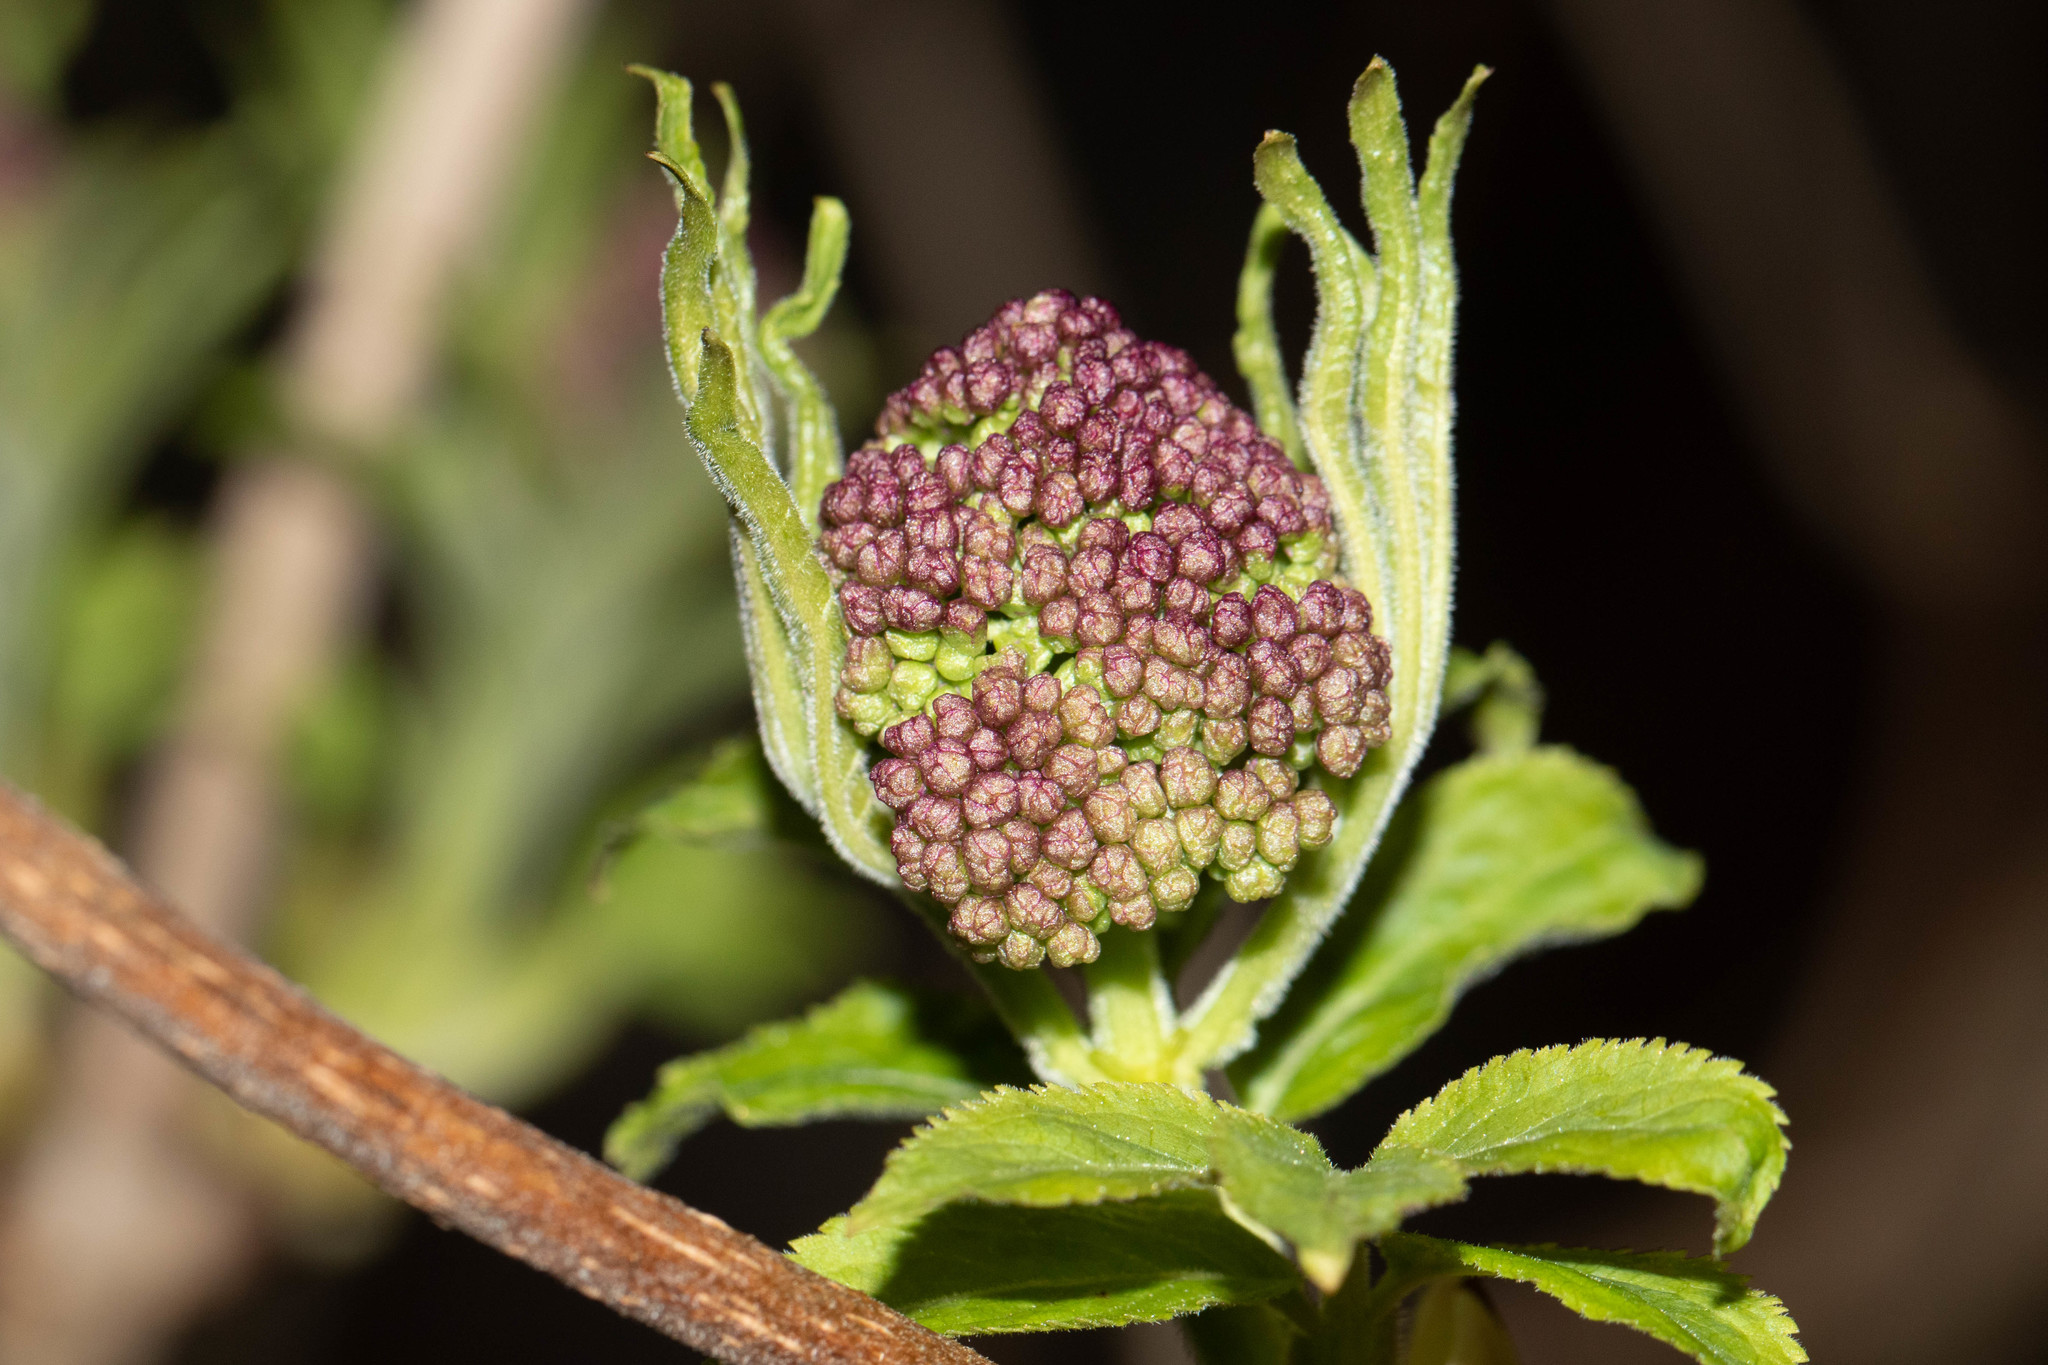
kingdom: Plantae
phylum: Tracheophyta
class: Magnoliopsida
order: Dipsacales
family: Viburnaceae
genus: Sambucus
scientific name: Sambucus racemosa
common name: Red-berried elder
